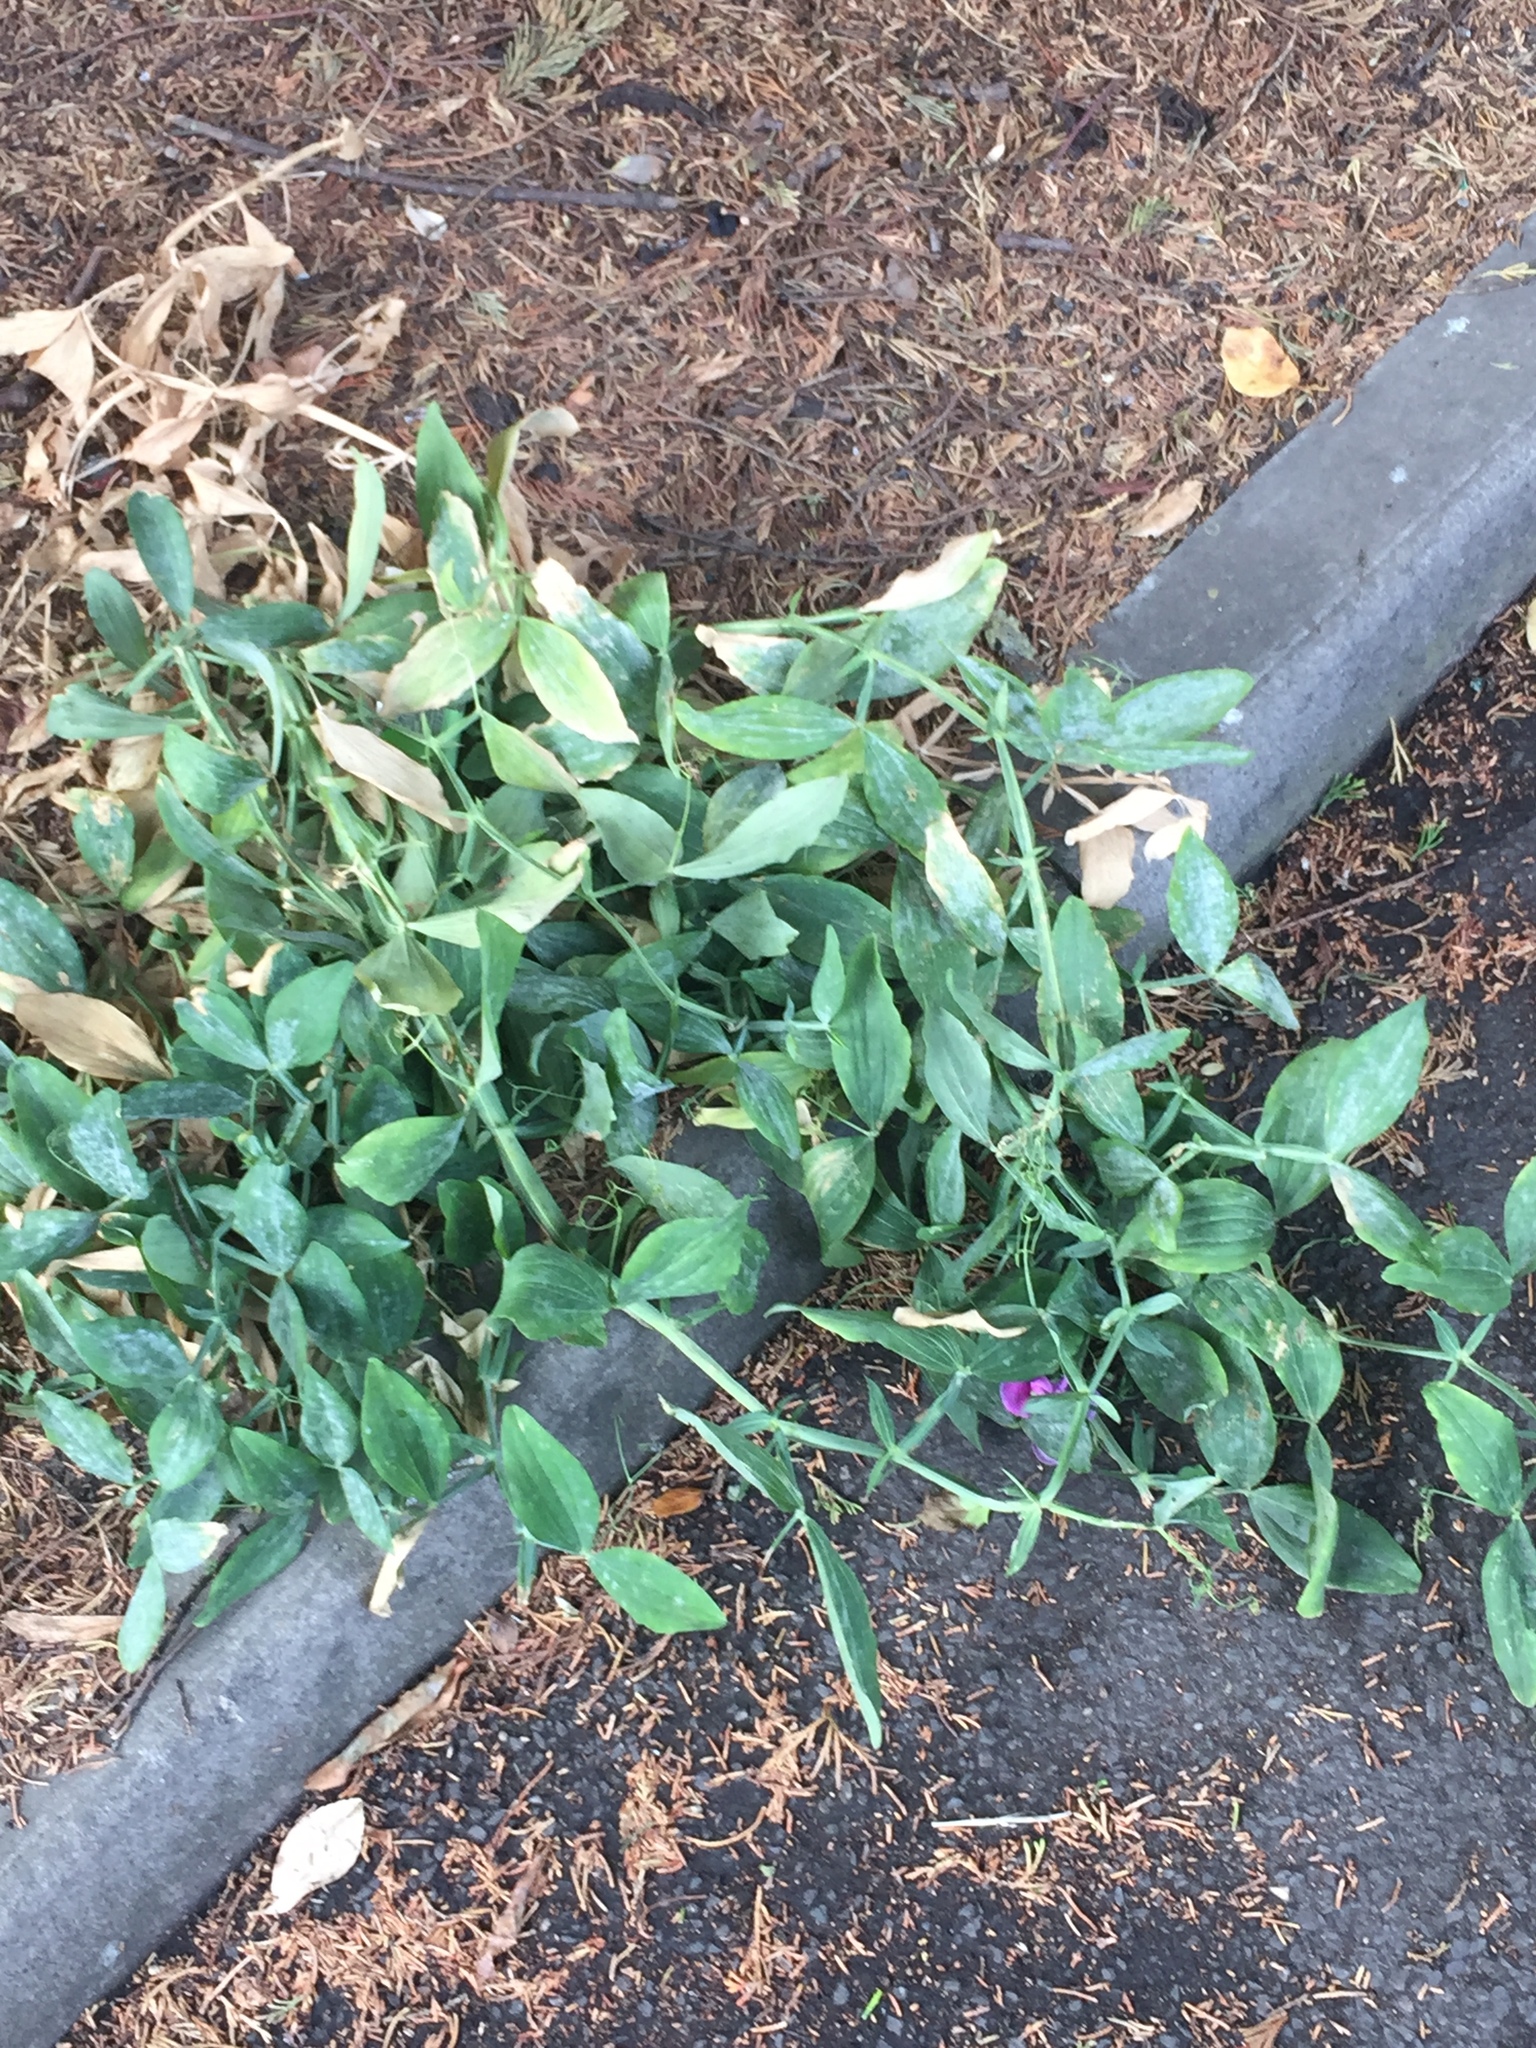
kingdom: Plantae
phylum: Tracheophyta
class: Magnoliopsida
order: Fabales
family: Fabaceae
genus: Lathyrus
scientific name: Lathyrus latifolius
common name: Perennial pea
